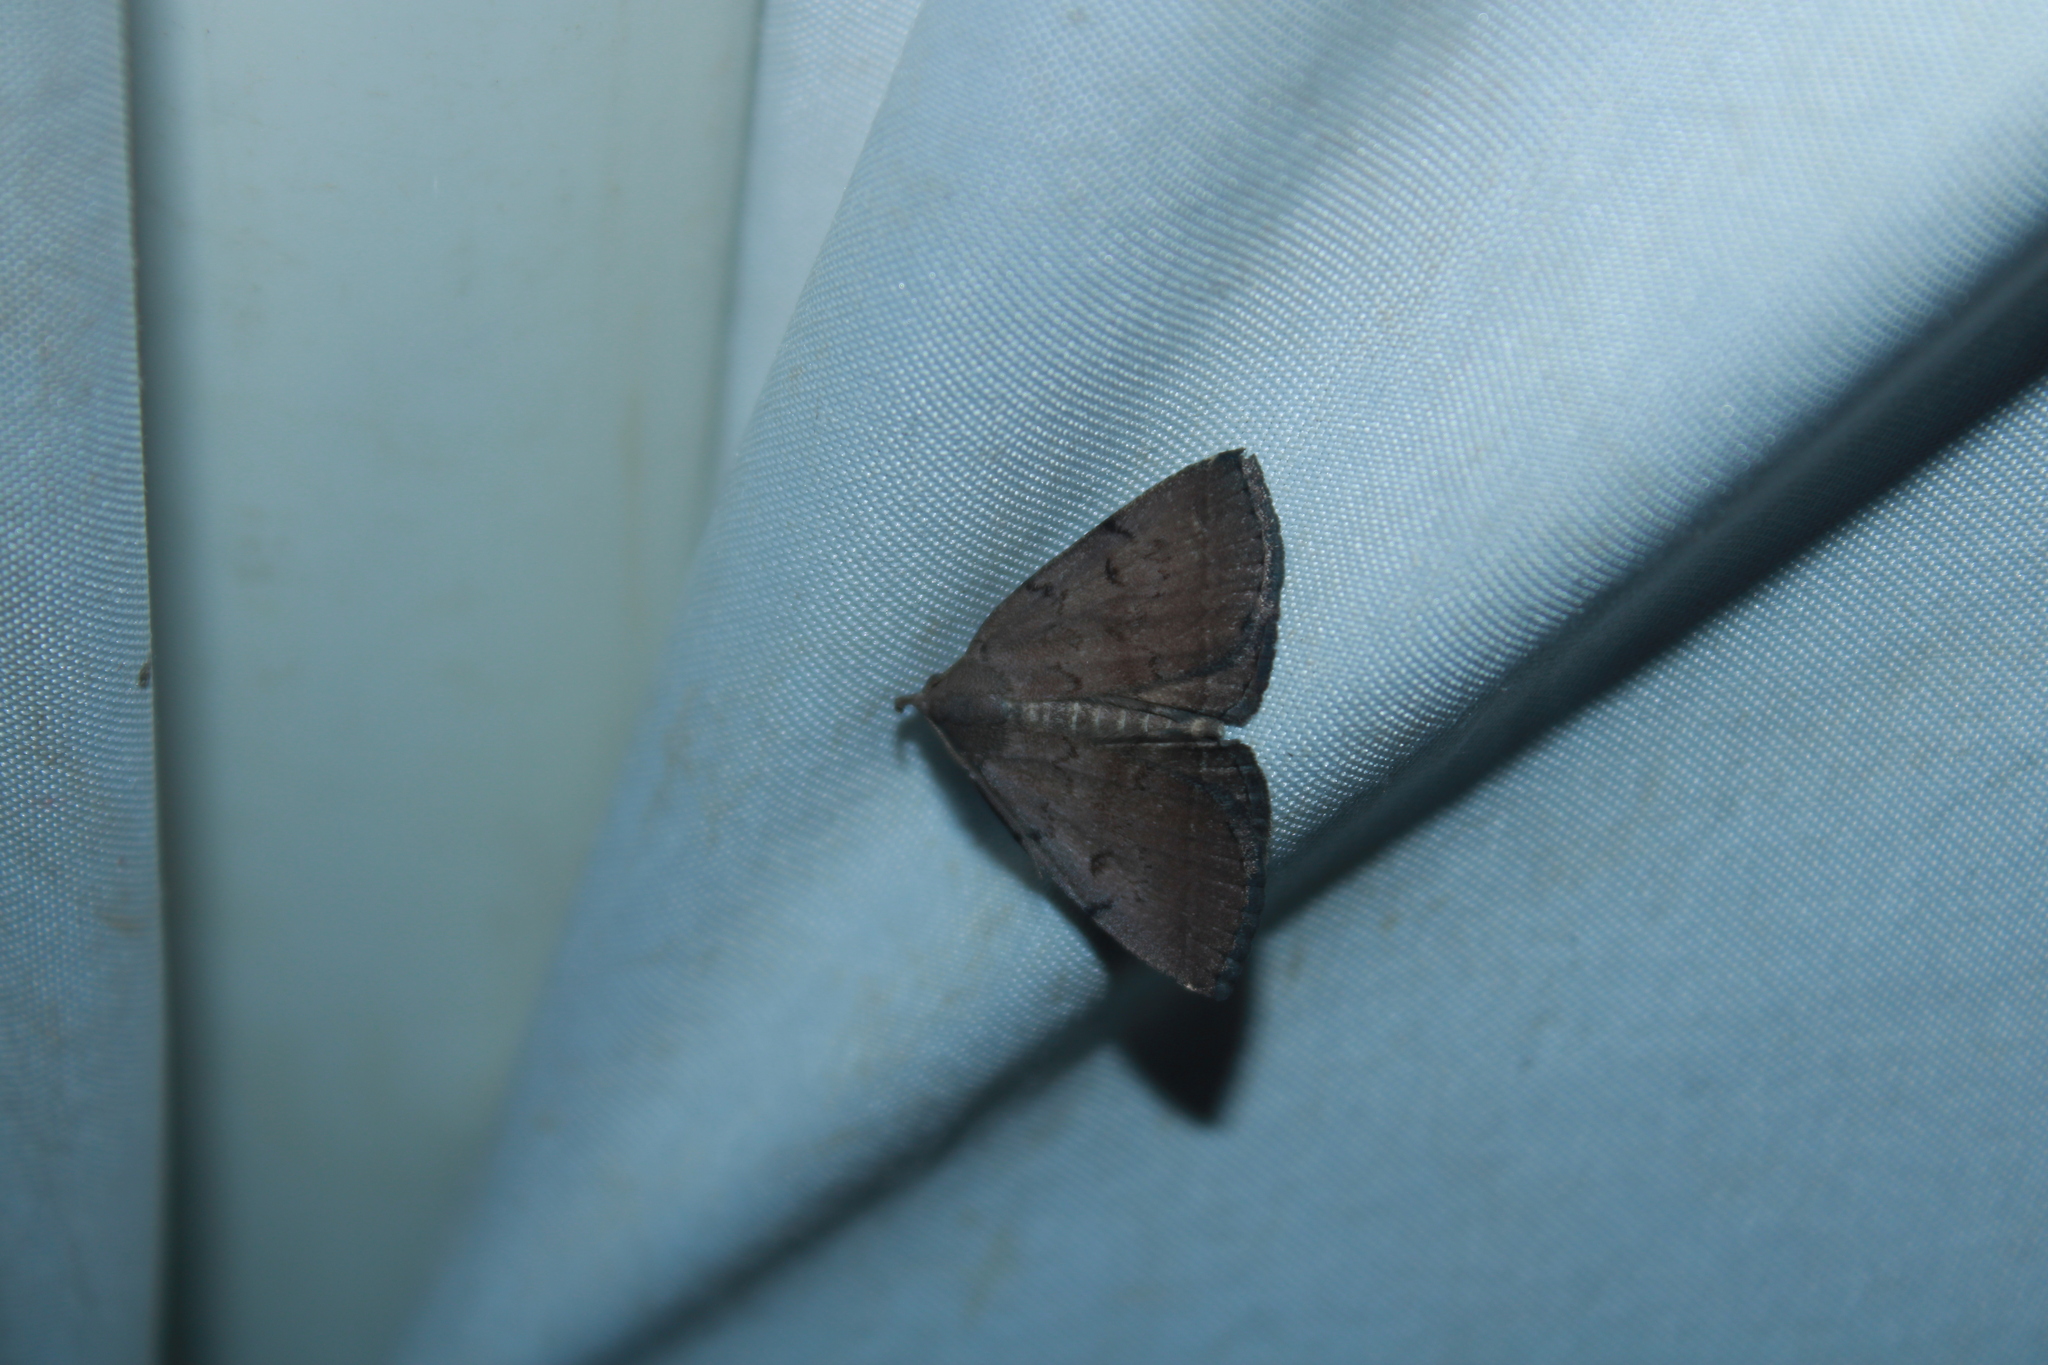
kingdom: Animalia
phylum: Arthropoda
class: Insecta
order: Lepidoptera
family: Erebidae
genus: Zanclognatha
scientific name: Zanclognatha martha
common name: Pine barrens zanclognatha
